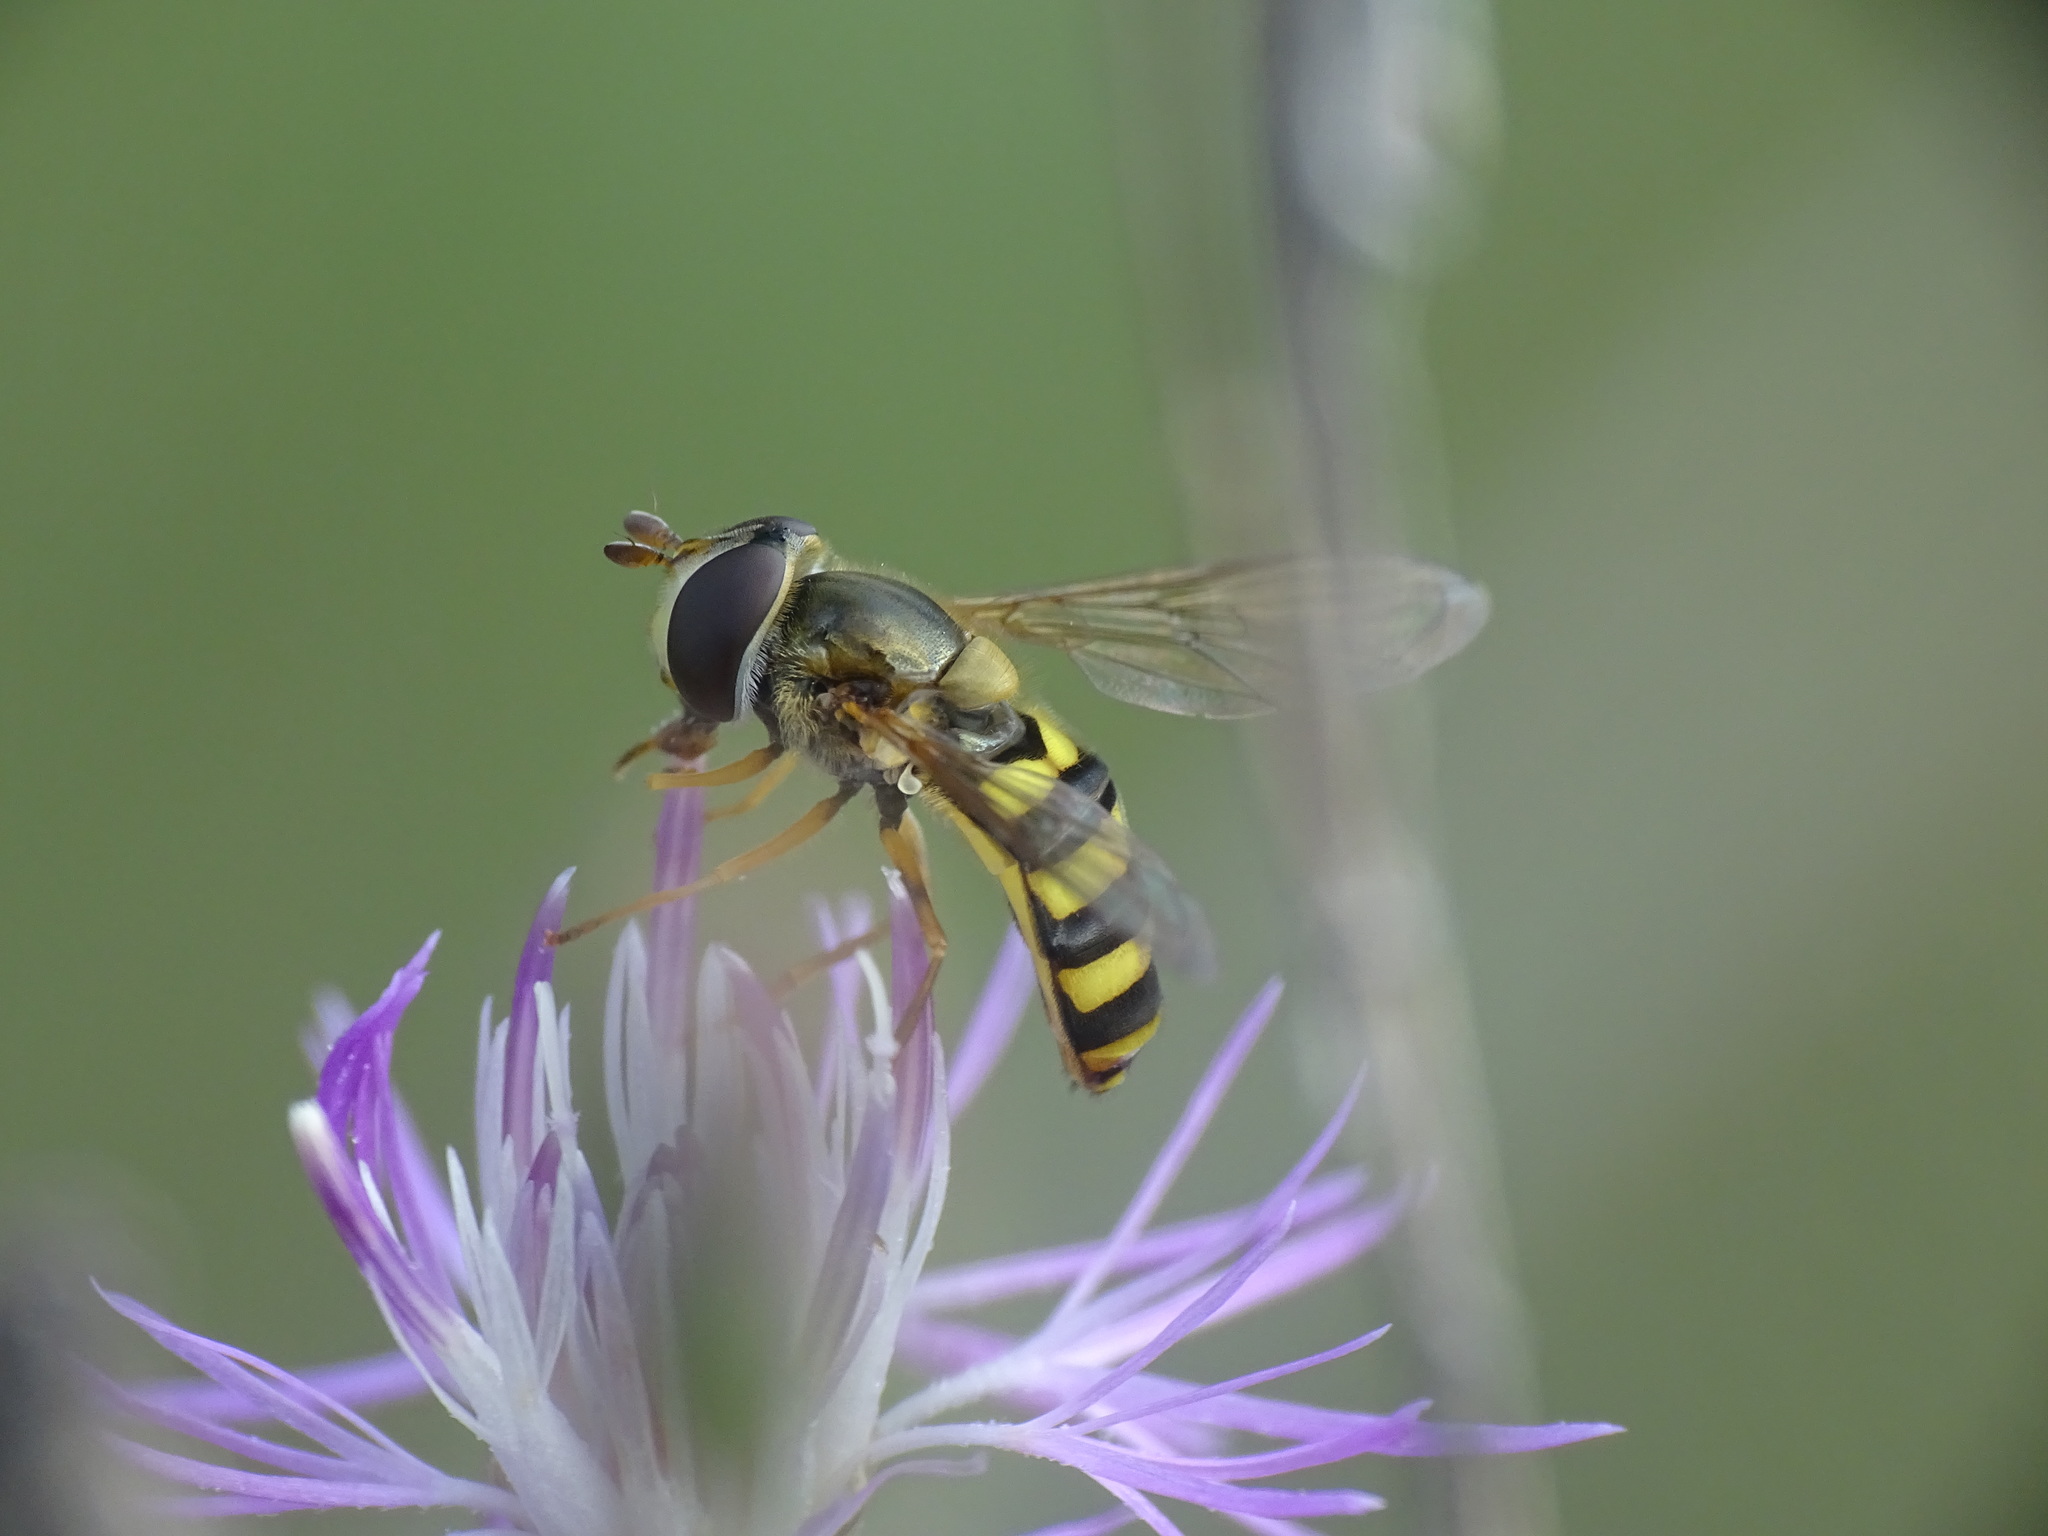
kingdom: Animalia
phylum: Arthropoda
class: Insecta
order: Diptera
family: Syrphidae
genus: Eupeodes
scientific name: Eupeodes
